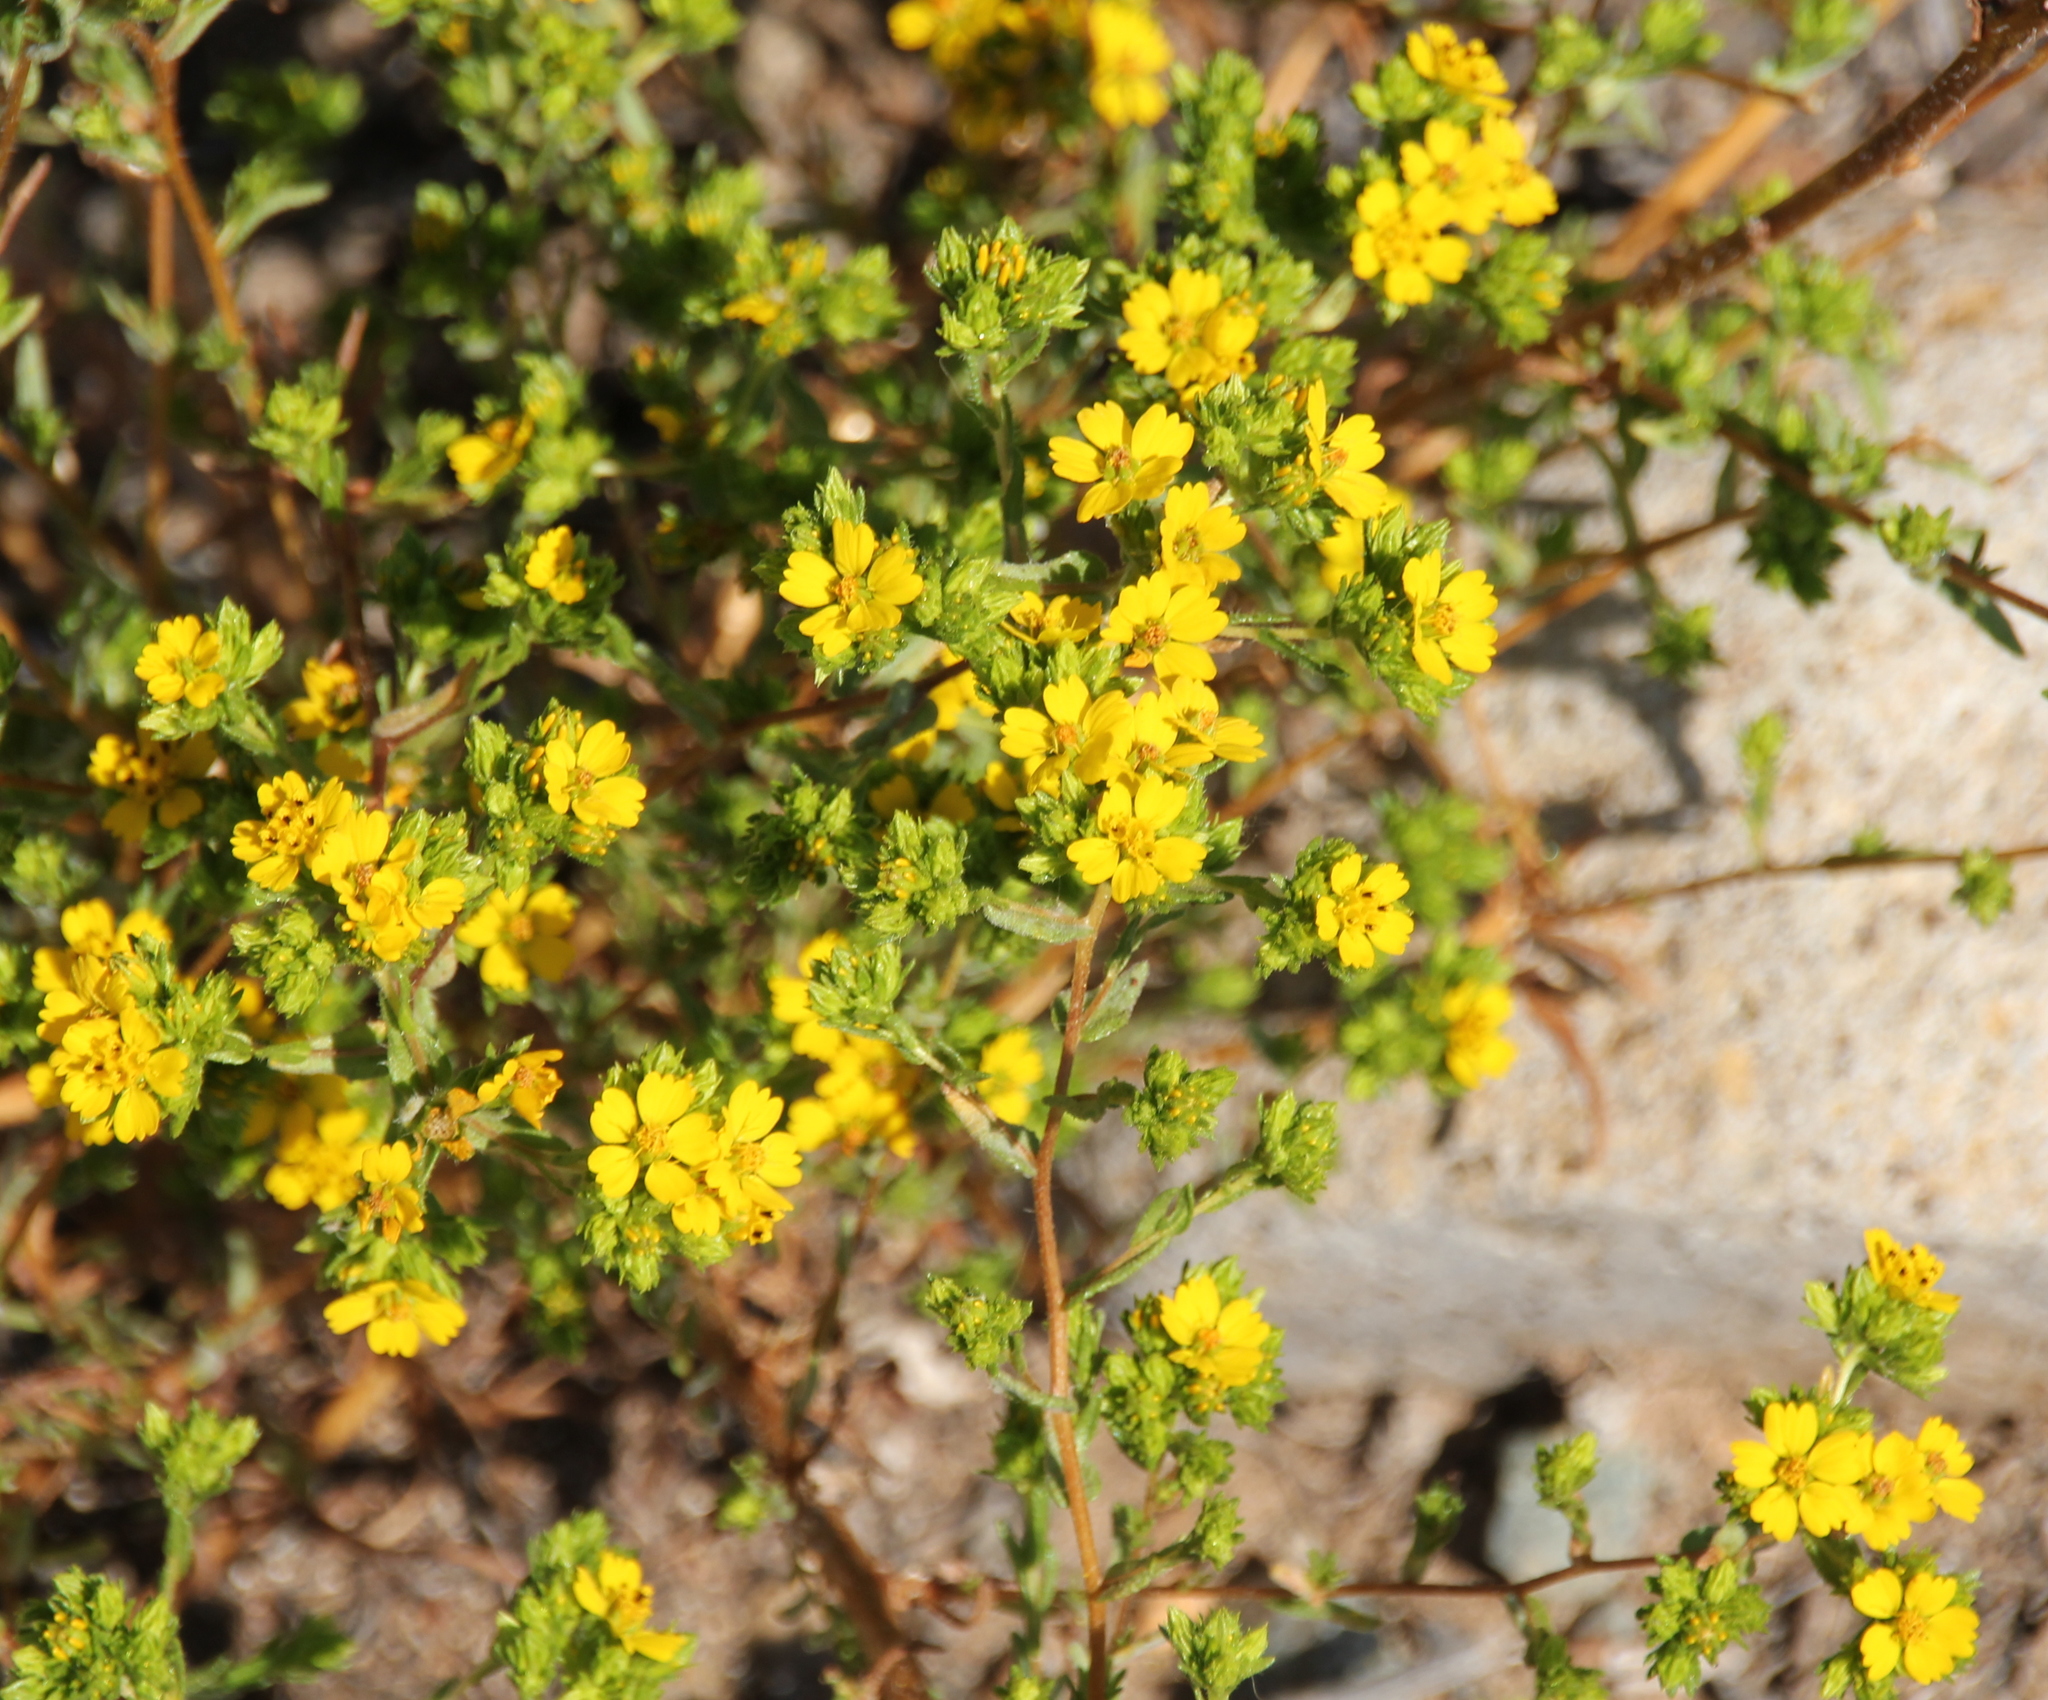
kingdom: Plantae
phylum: Tracheophyta
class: Magnoliopsida
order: Asterales
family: Asteraceae
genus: Deinandra
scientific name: Deinandra fasciculata
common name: Clustered tarweed
